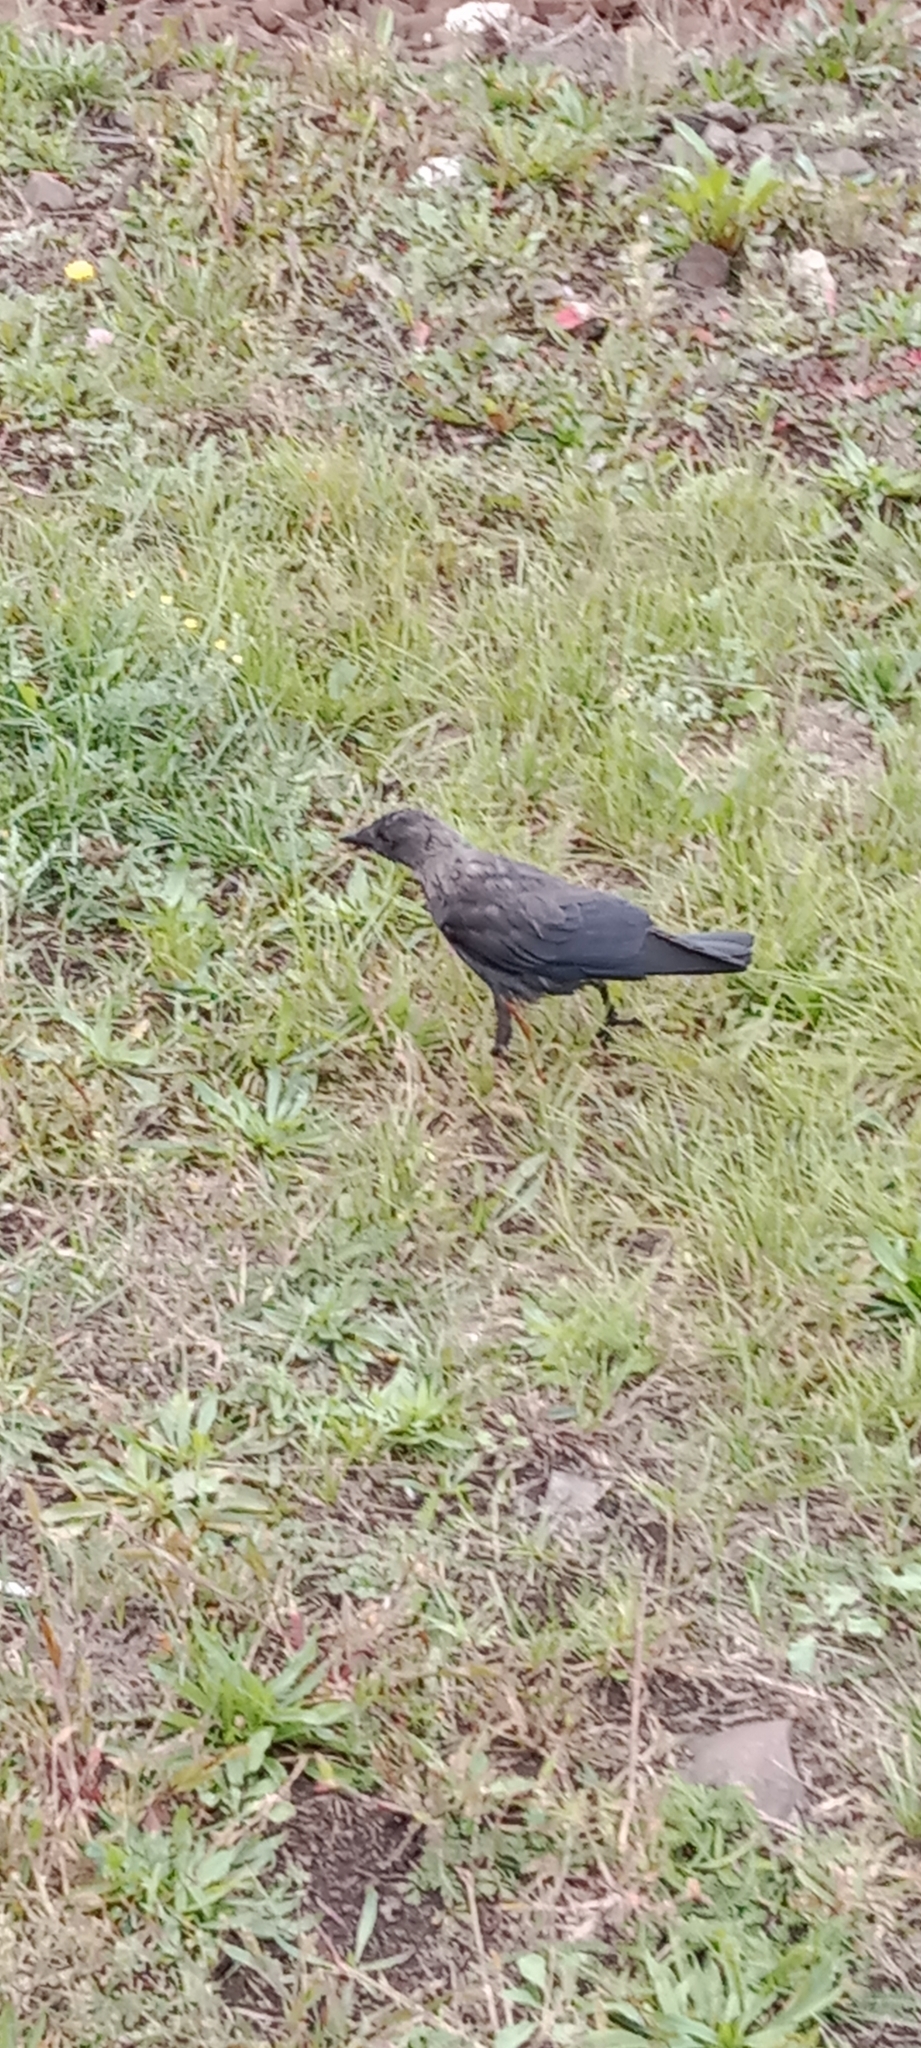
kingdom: Animalia
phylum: Chordata
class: Aves
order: Passeriformes
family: Corvidae
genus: Coloeus
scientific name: Coloeus monedula
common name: Western jackdaw
